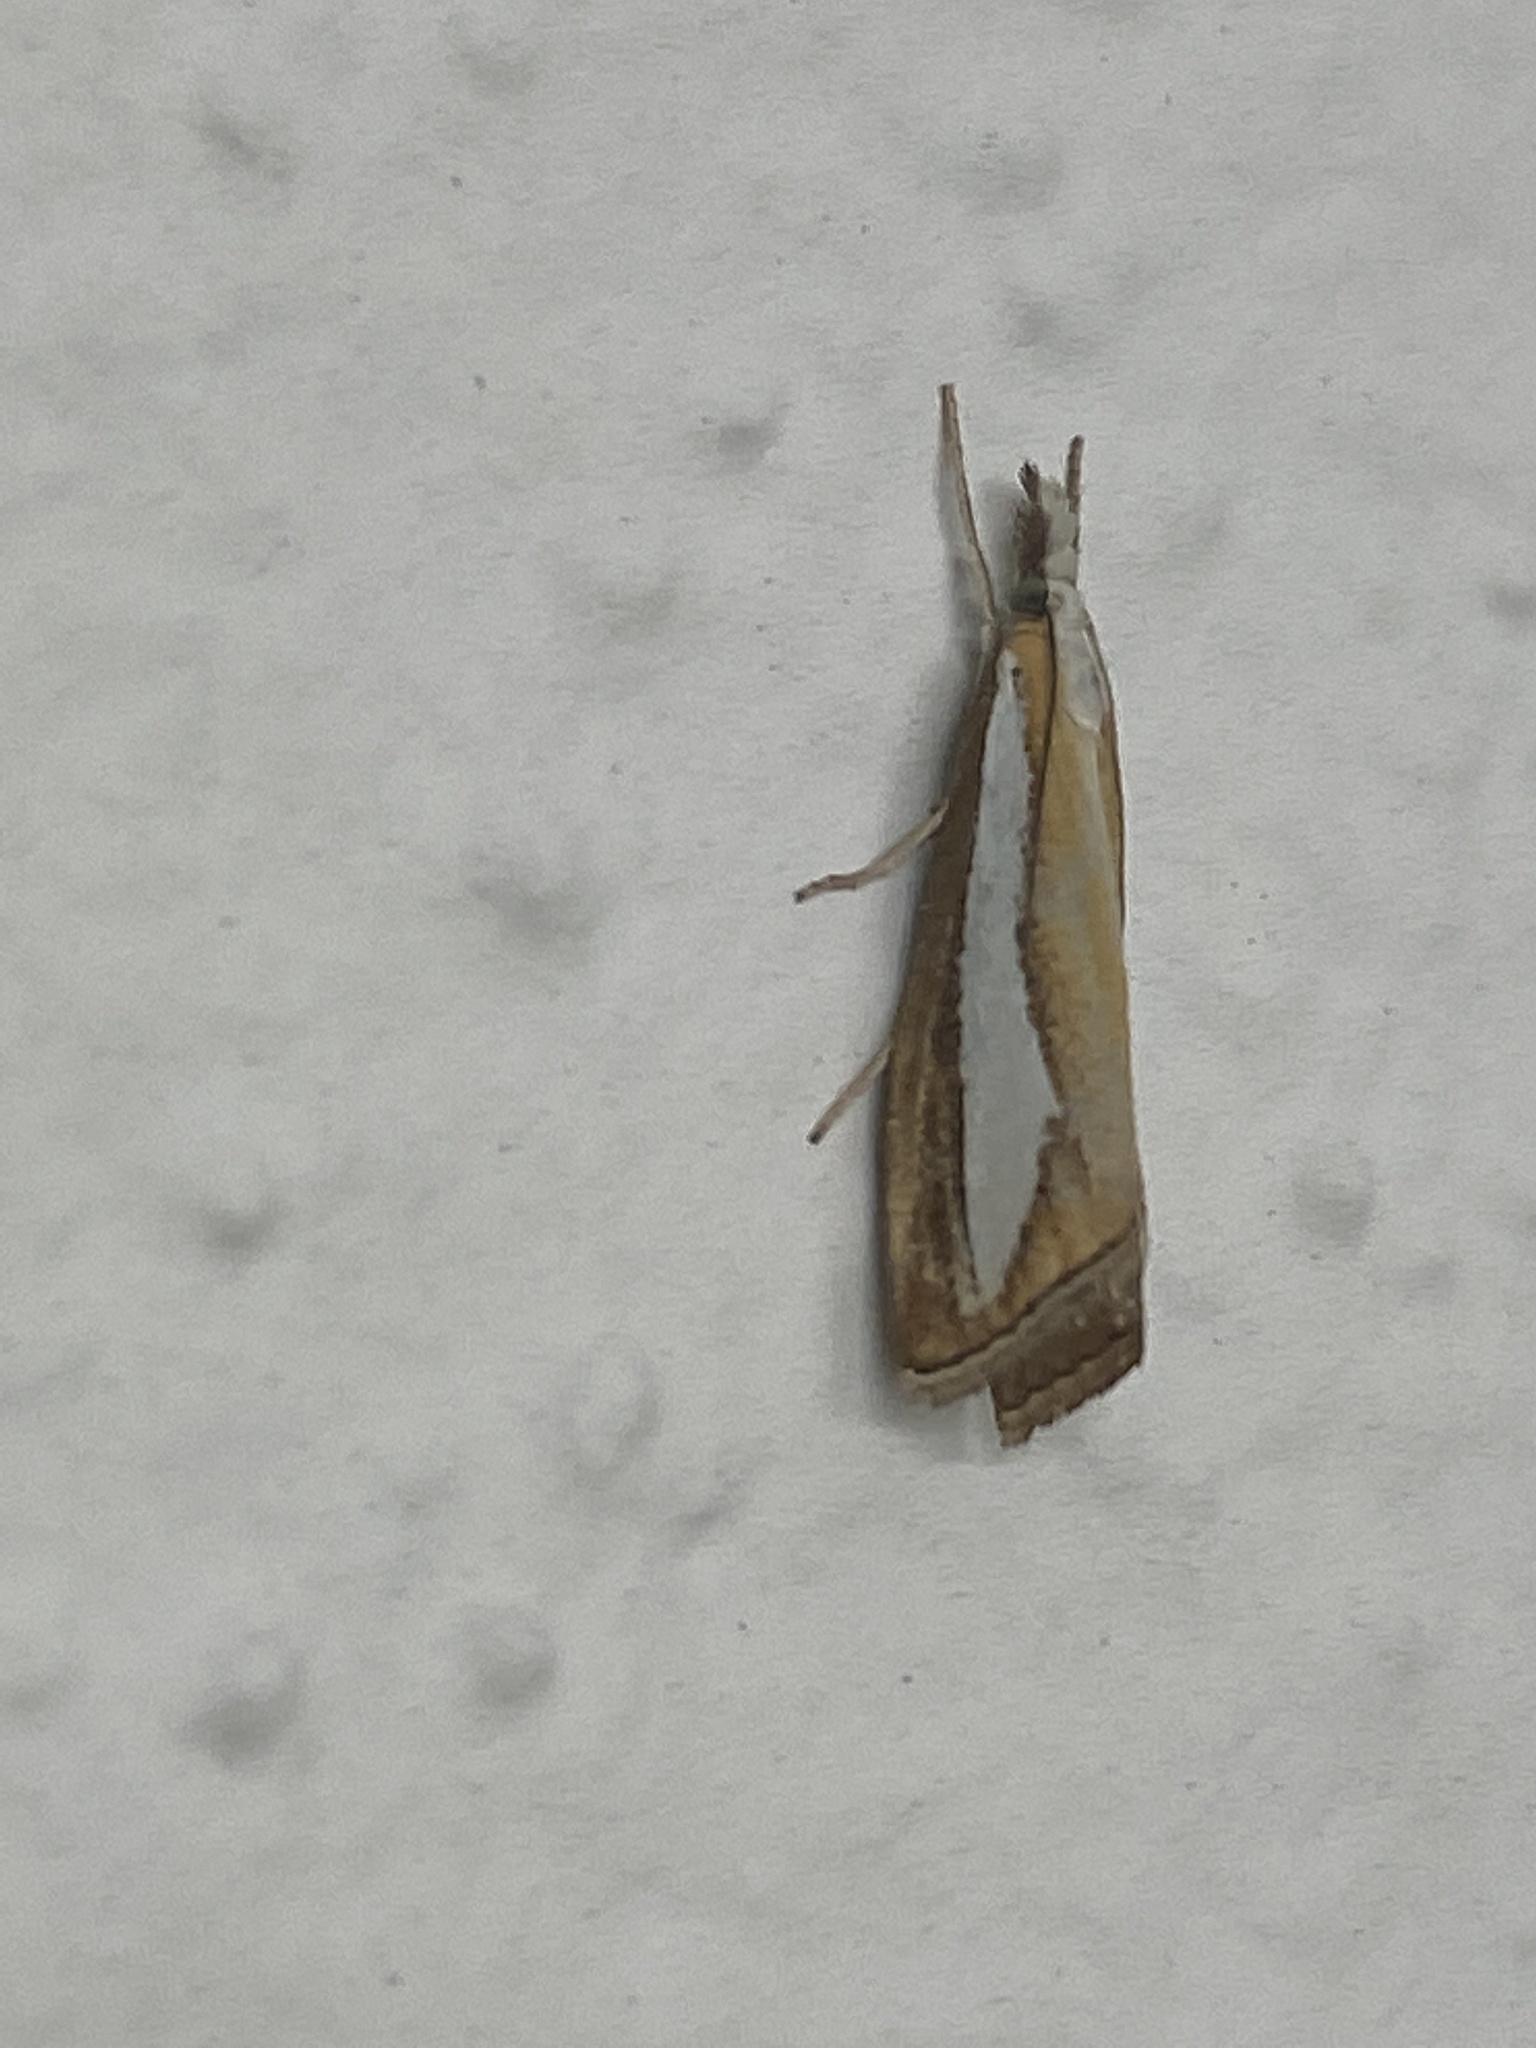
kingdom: Animalia
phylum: Arthropoda
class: Insecta
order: Lepidoptera
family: Crambidae
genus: Catoptria
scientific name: Catoptria margaritellus
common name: Pearl-band grass veneer
